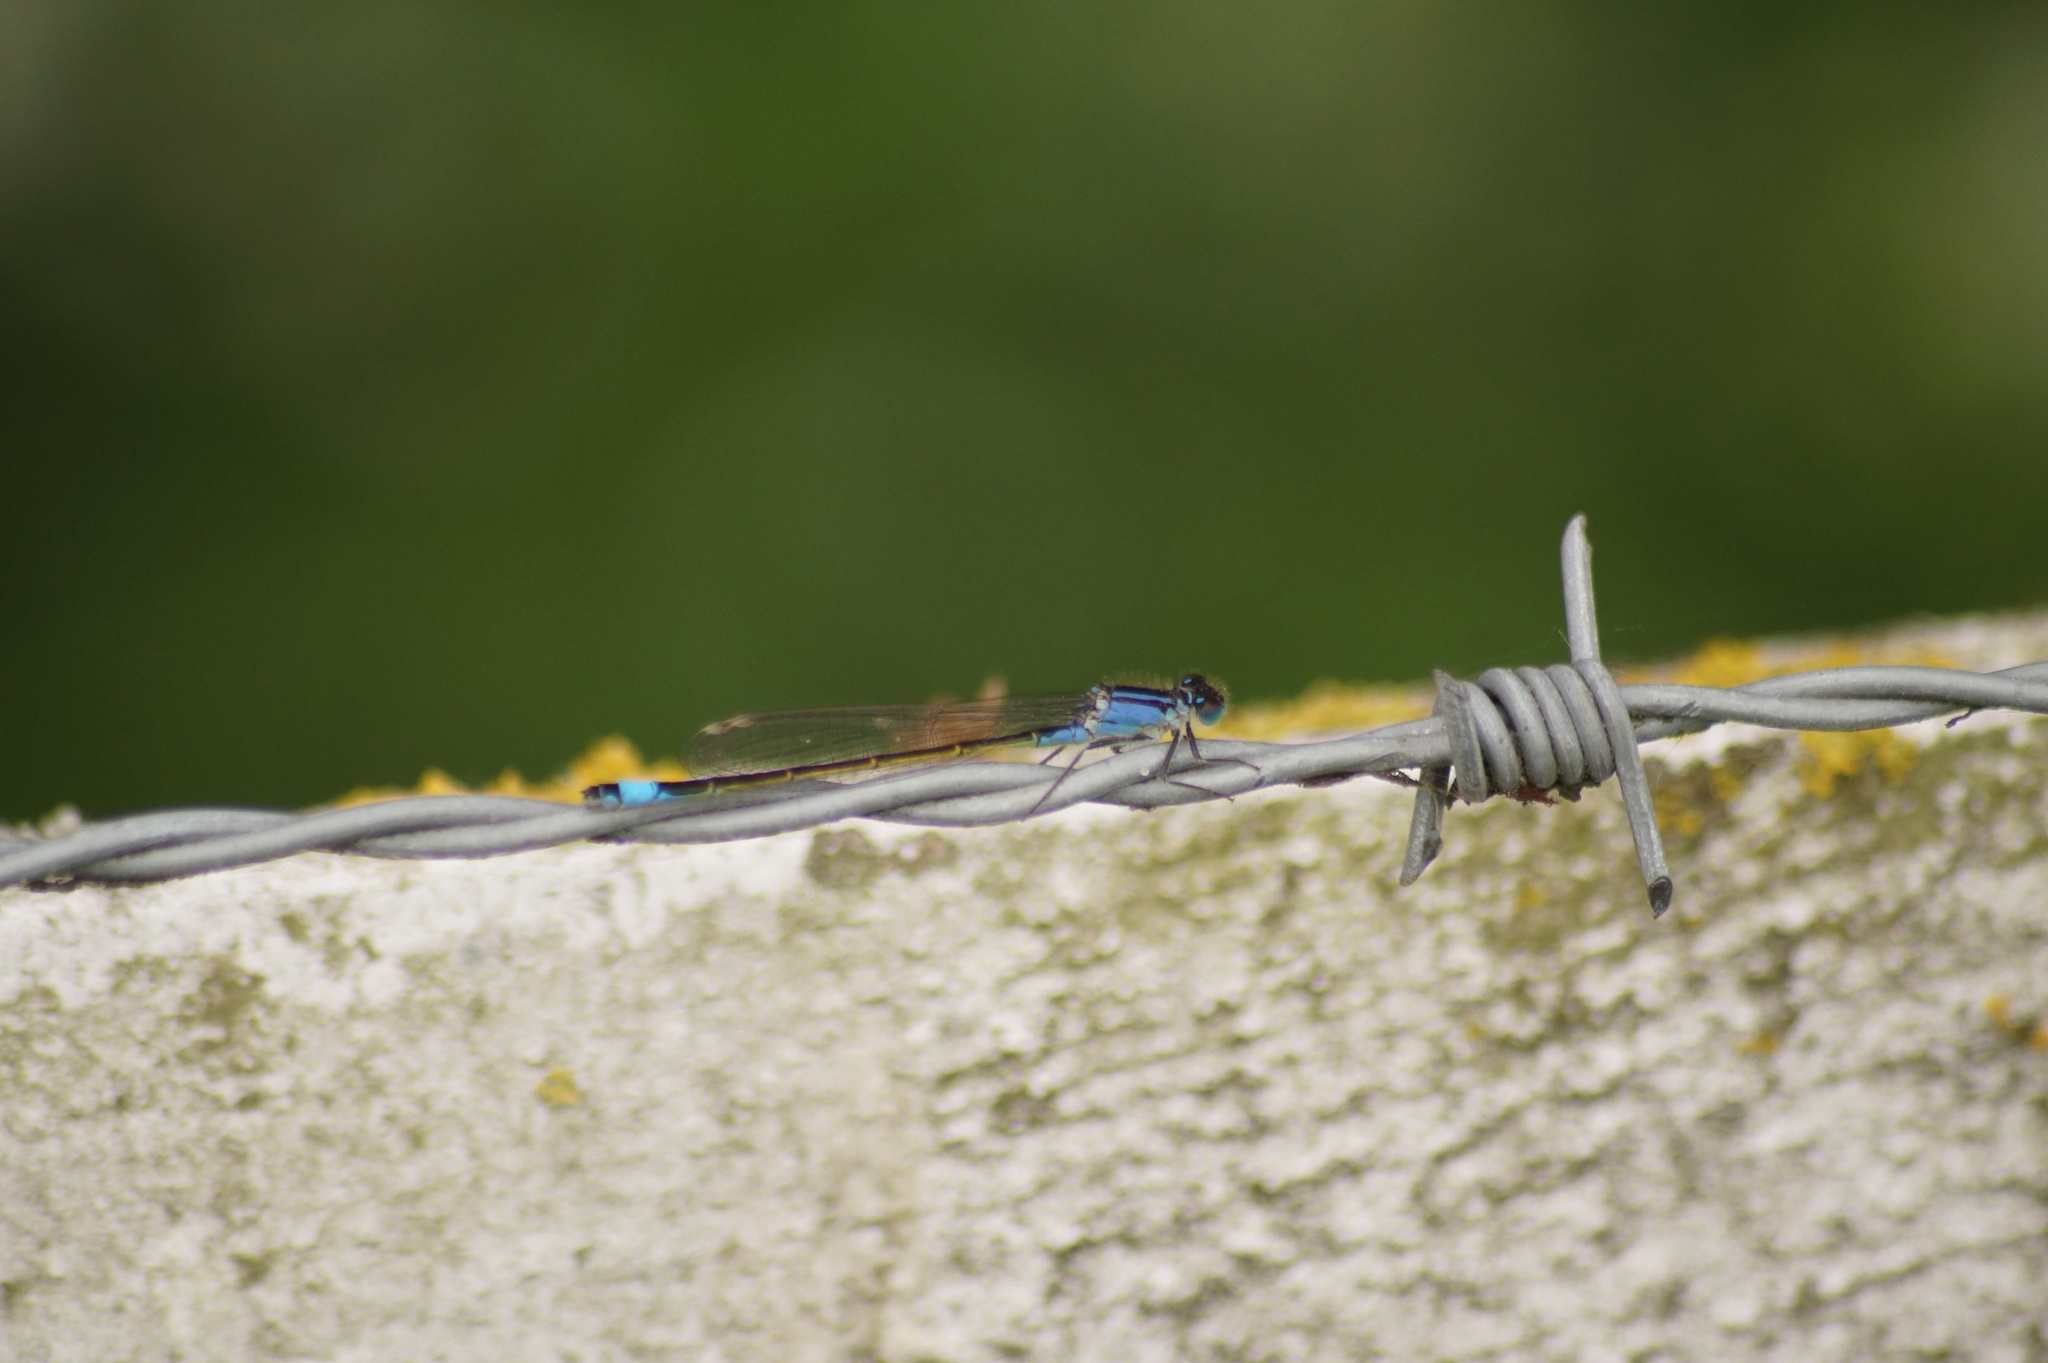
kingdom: Animalia
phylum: Arthropoda
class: Insecta
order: Odonata
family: Coenagrionidae
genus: Ischnura
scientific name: Ischnura elegans
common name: Blue-tailed damselfly
